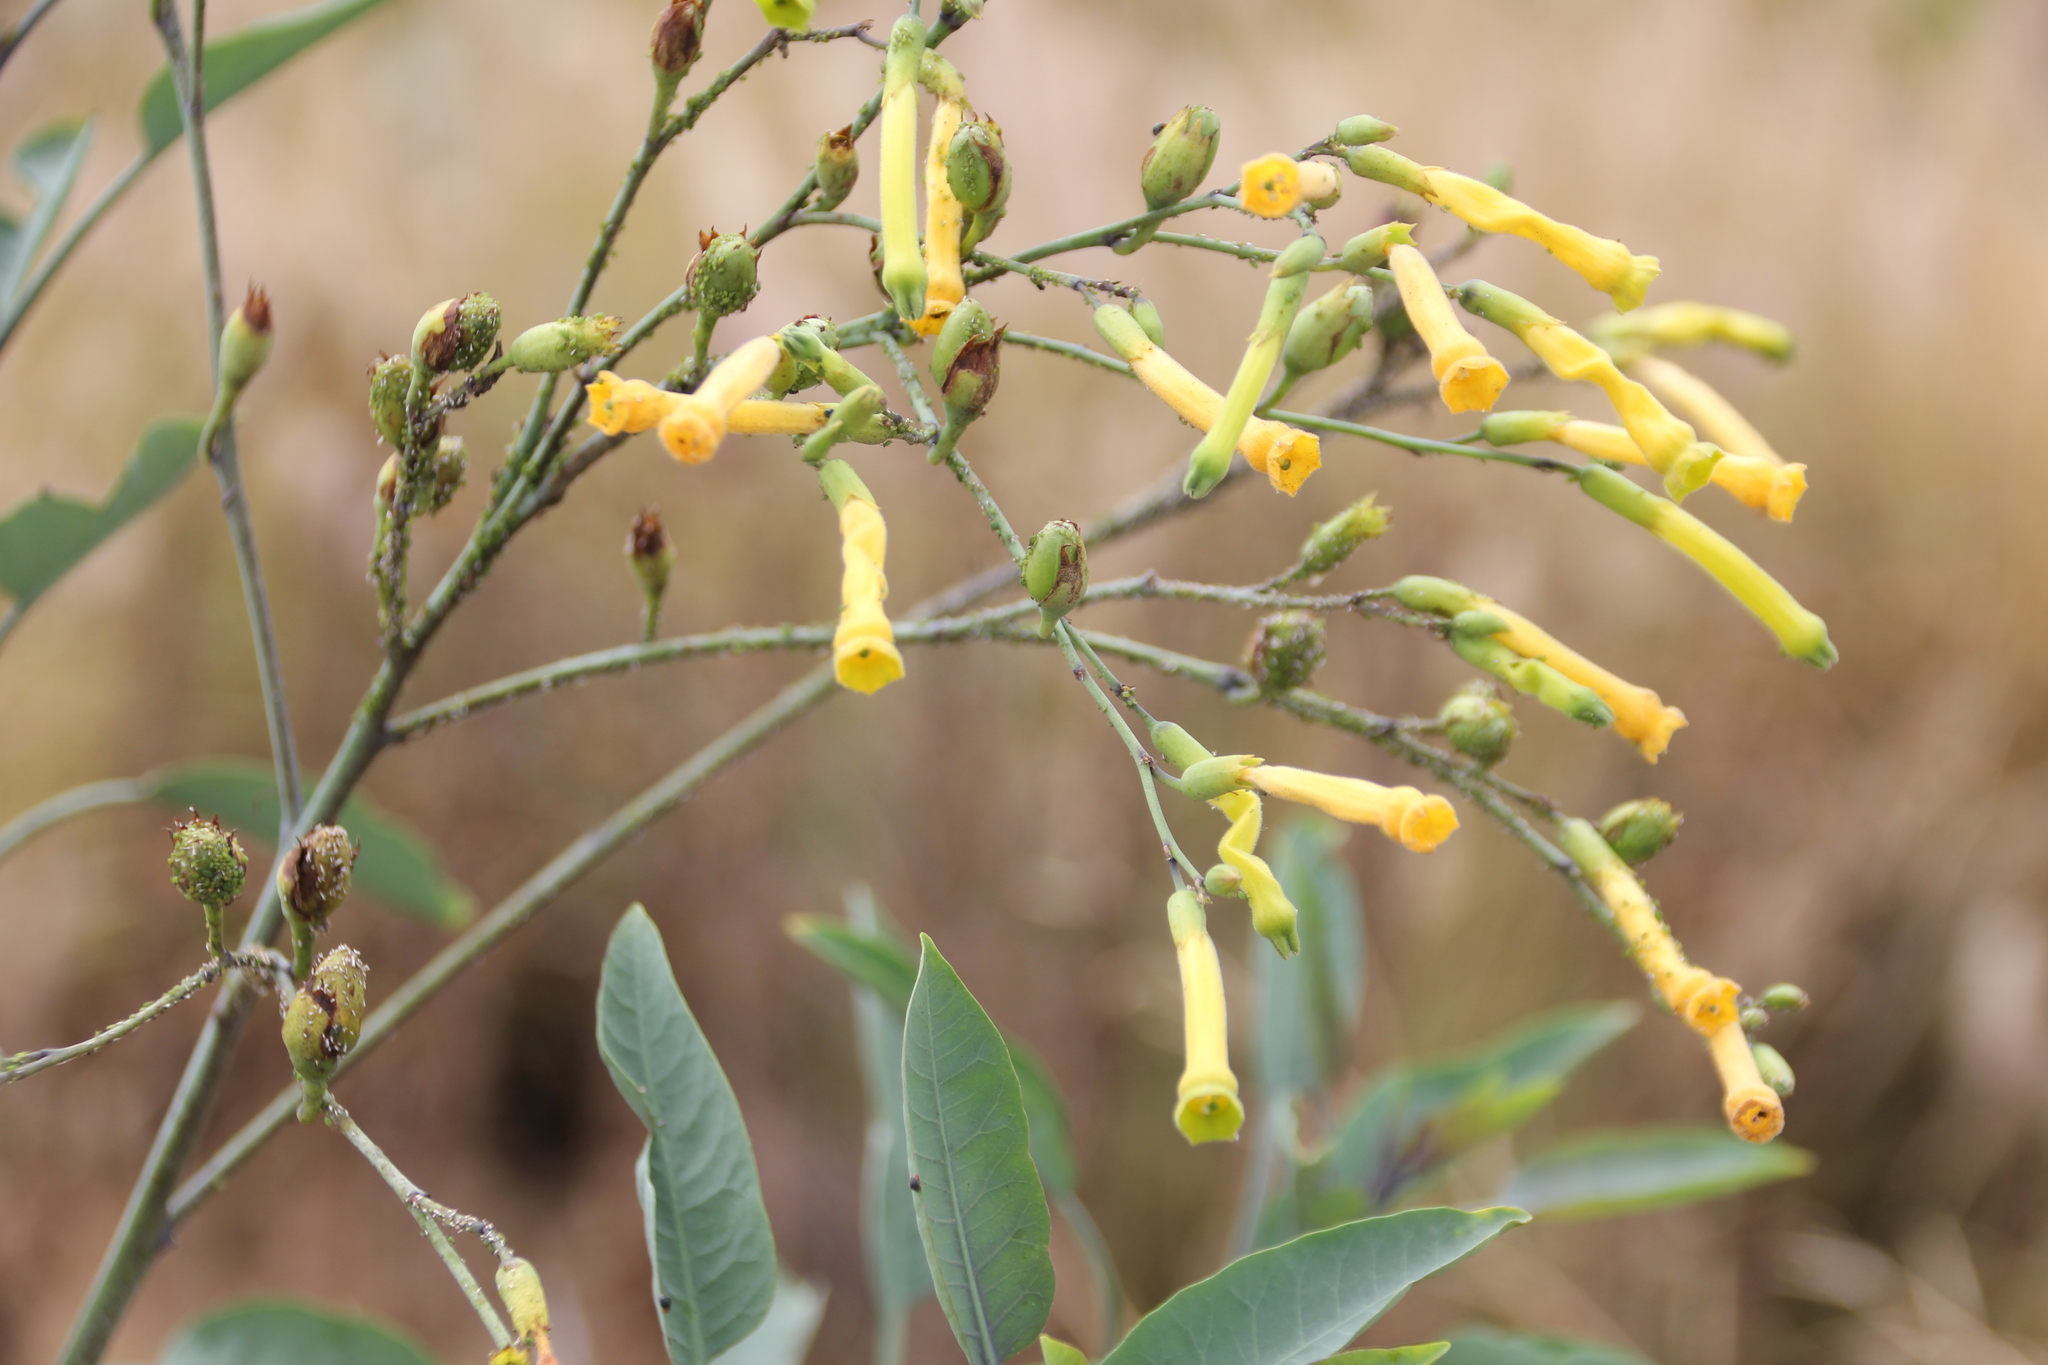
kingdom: Plantae
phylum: Tracheophyta
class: Magnoliopsida
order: Solanales
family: Solanaceae
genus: Nicotiana
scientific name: Nicotiana glauca
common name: Tree tobacco
